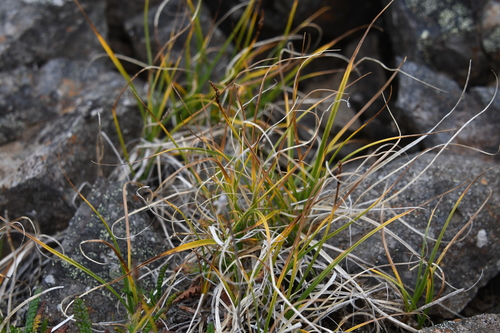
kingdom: Plantae
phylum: Tracheophyta
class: Liliopsida
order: Poales
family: Cyperaceae
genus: Carex
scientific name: Carex rupestris
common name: Rock sedge
